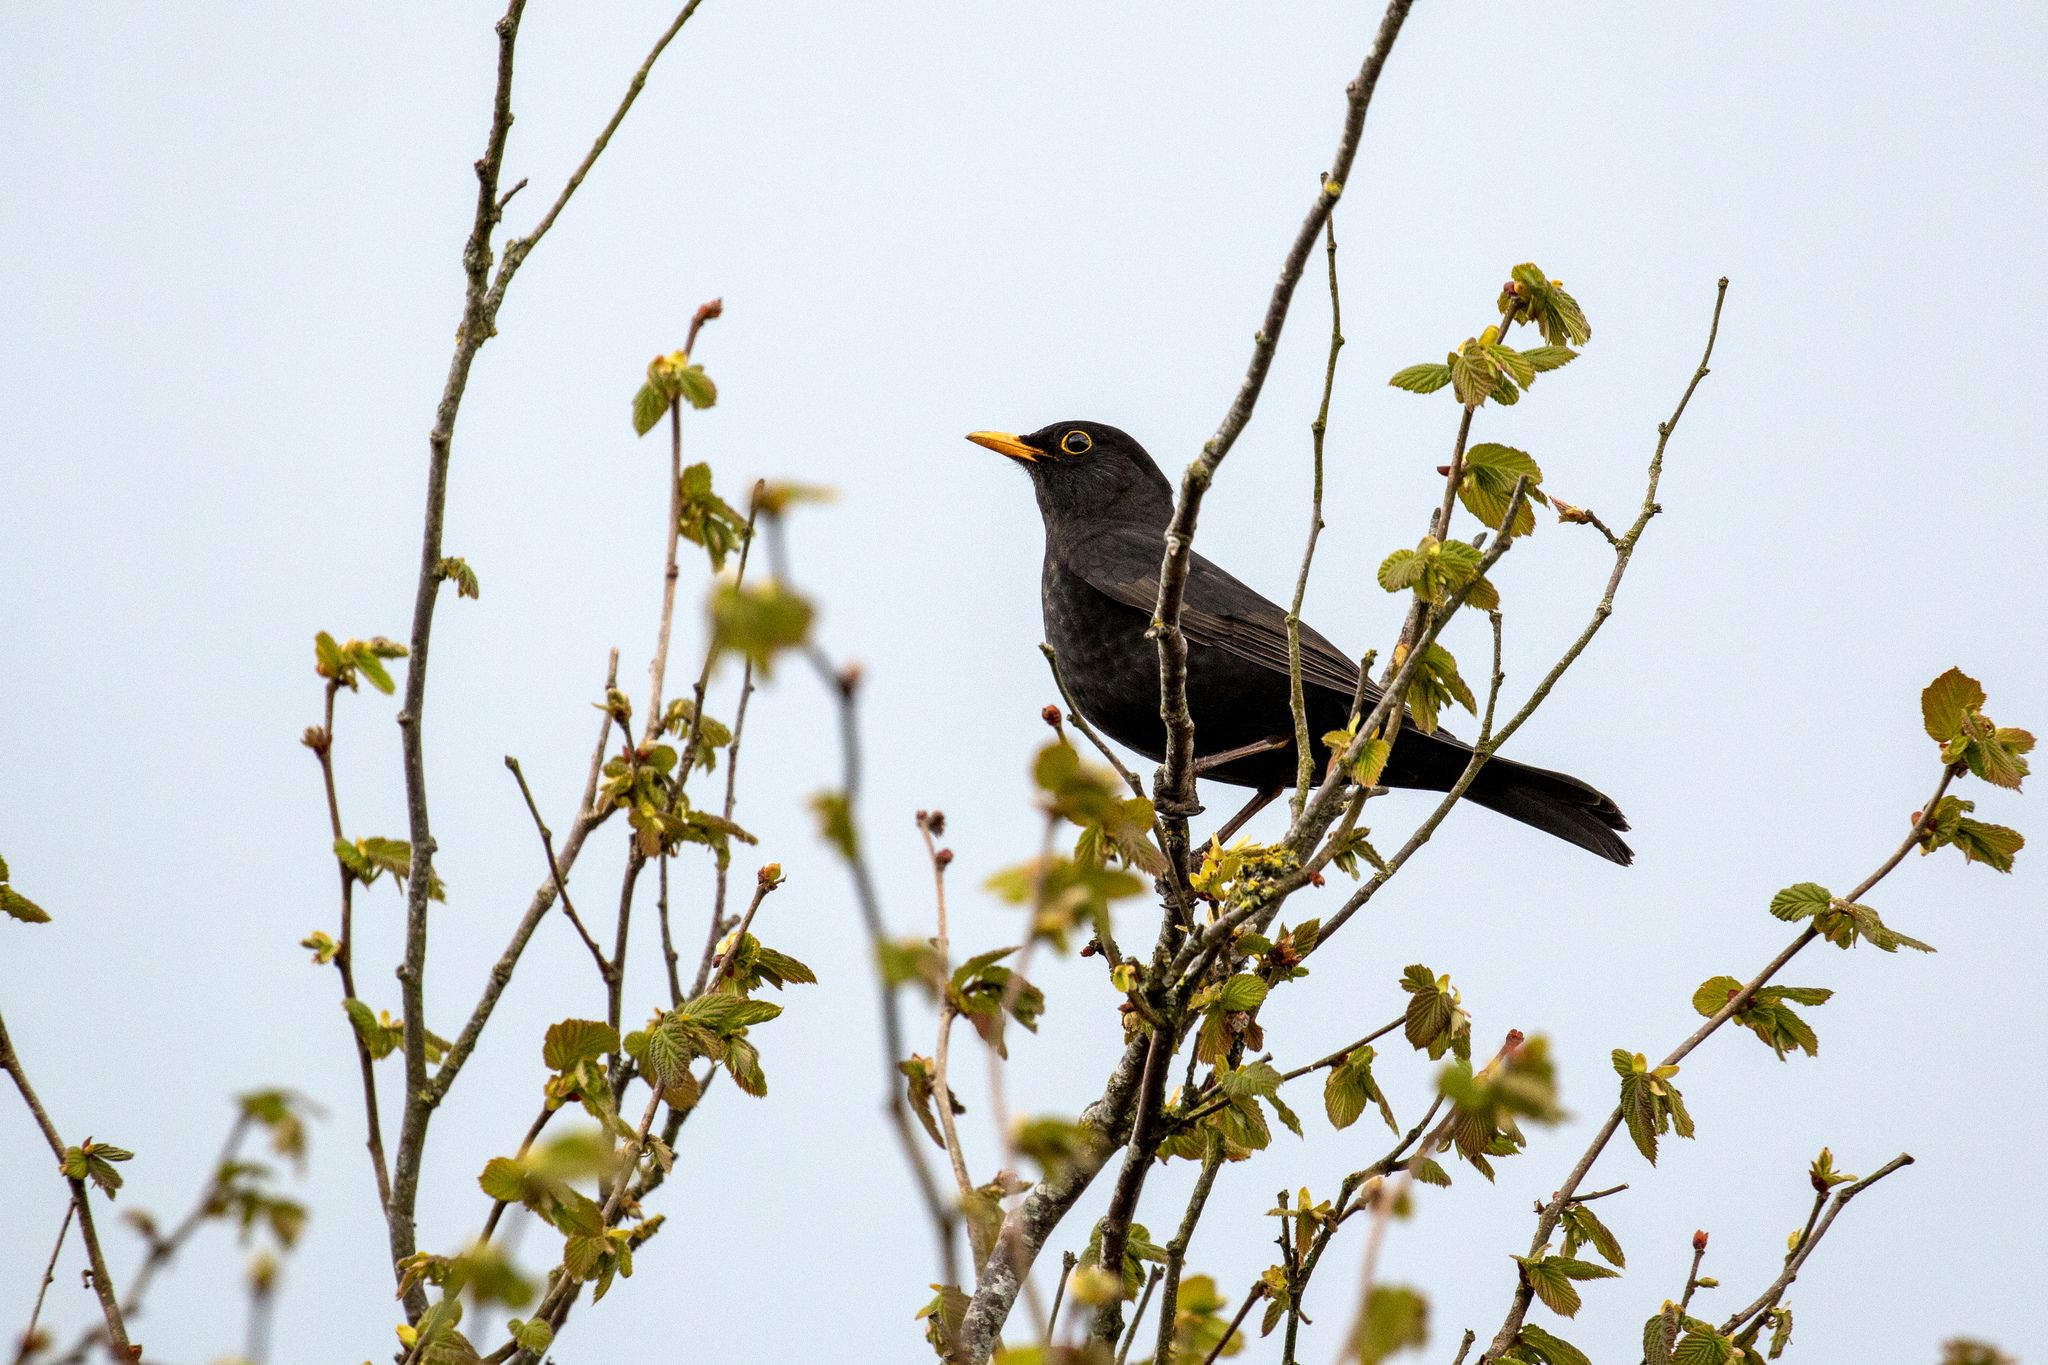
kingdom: Animalia
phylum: Chordata
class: Aves
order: Passeriformes
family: Turdidae
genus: Turdus
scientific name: Turdus merula
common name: Common blackbird
